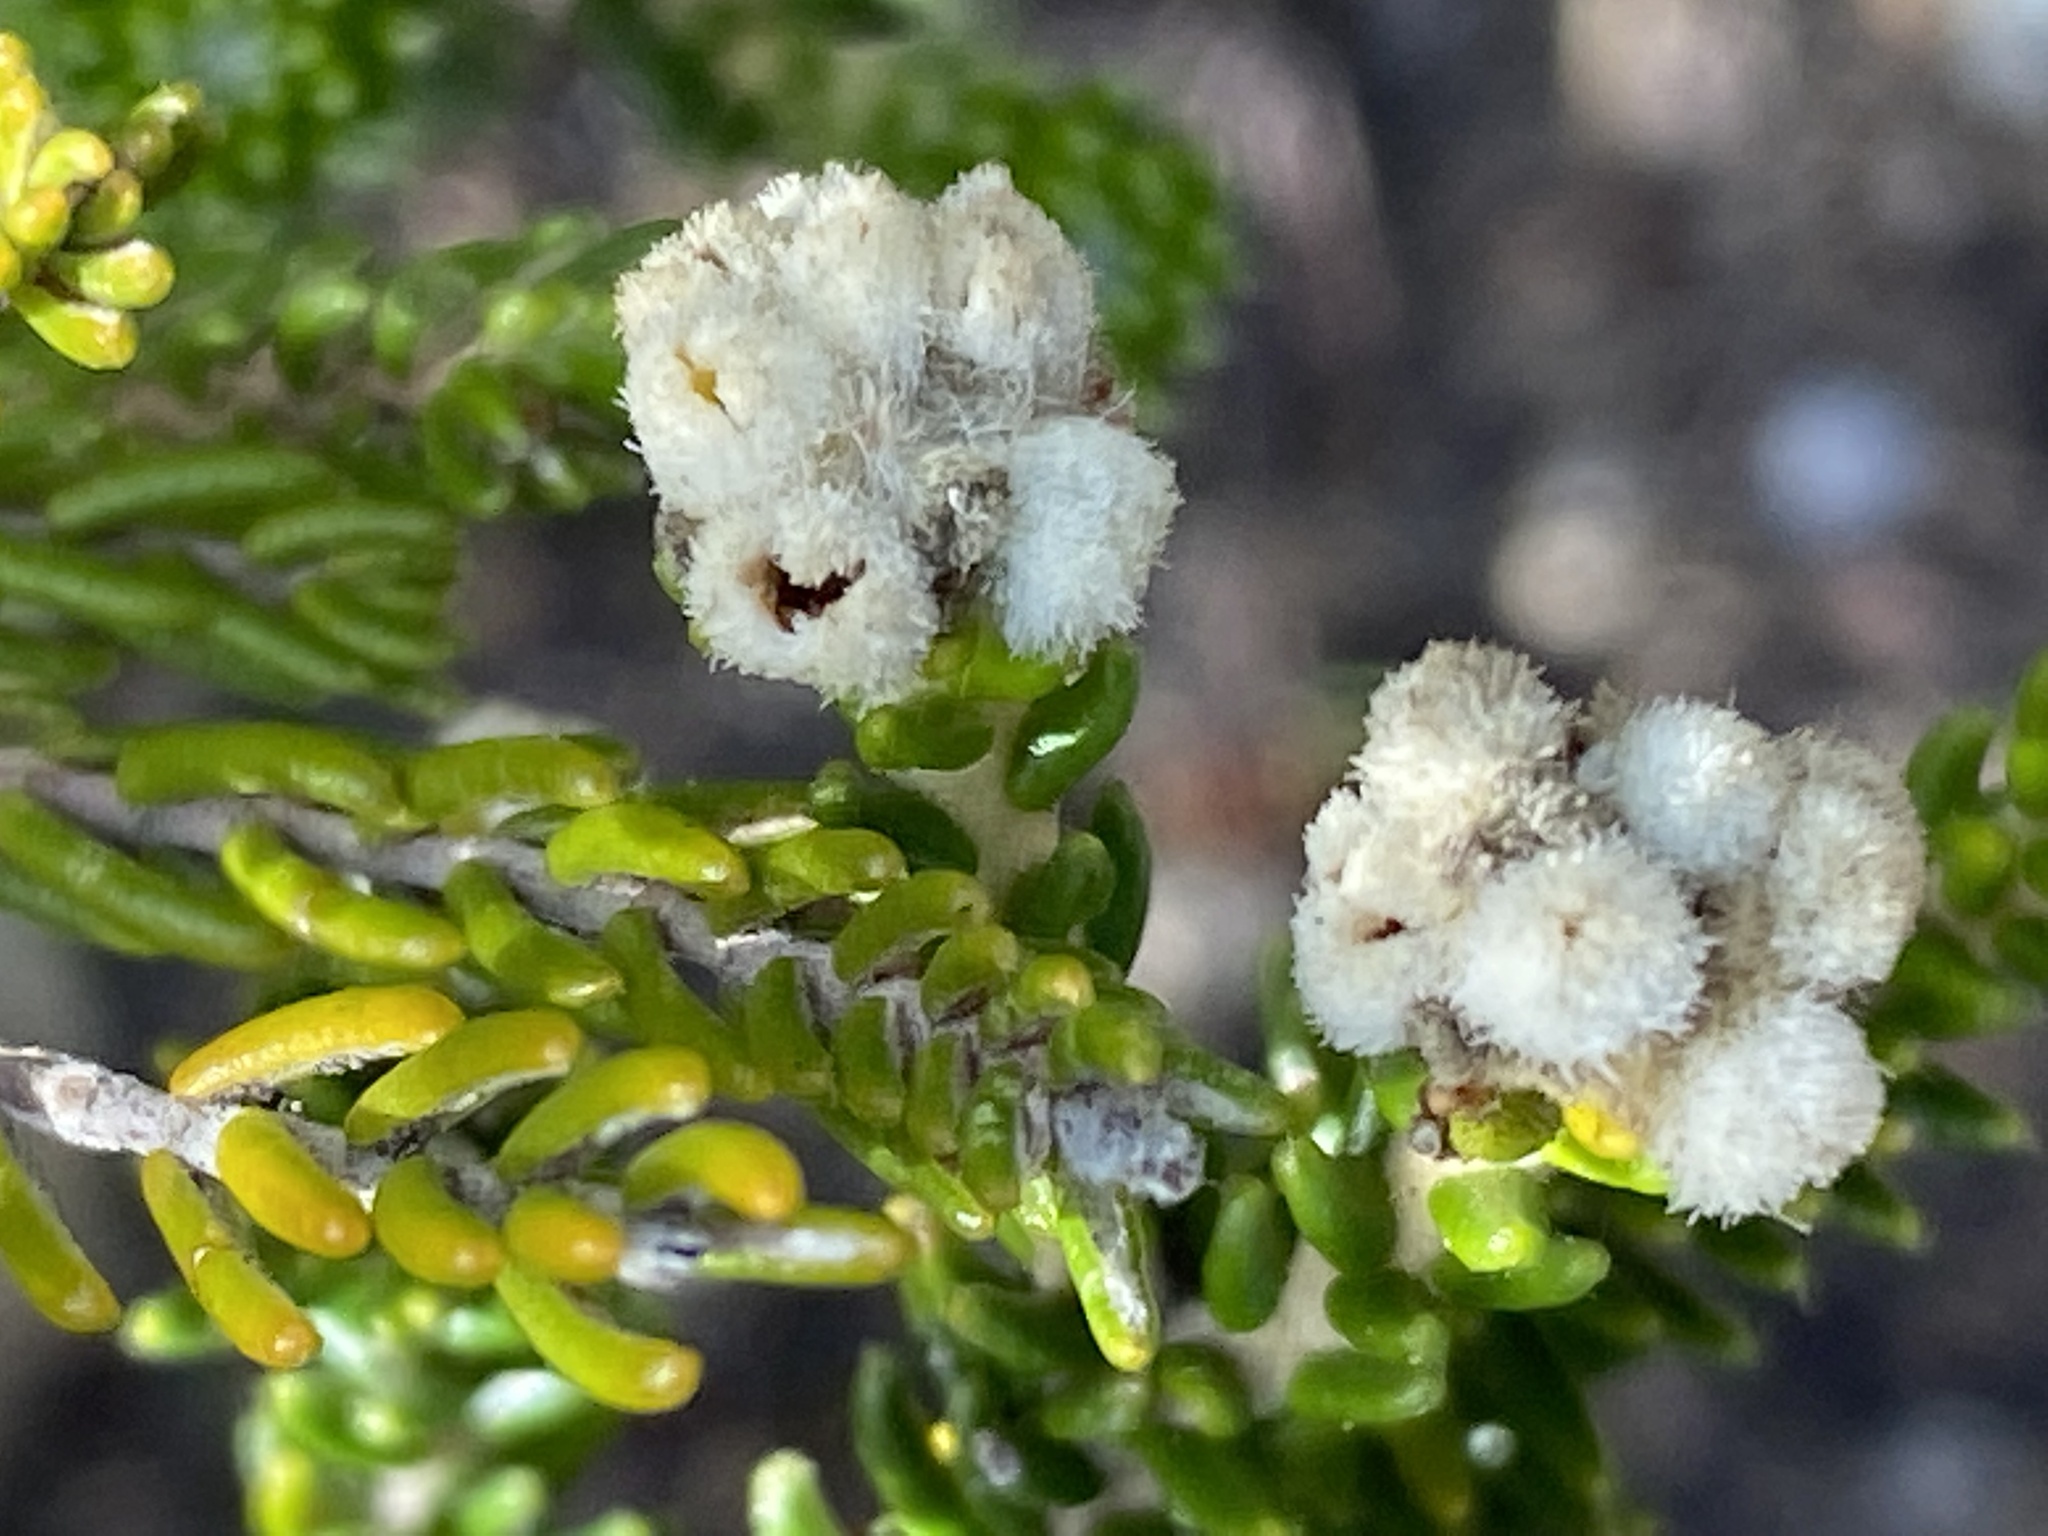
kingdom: Plantae
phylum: Tracheophyta
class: Magnoliopsida
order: Rosales
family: Rhamnaceae
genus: Phylica
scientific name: Phylica ericoides
